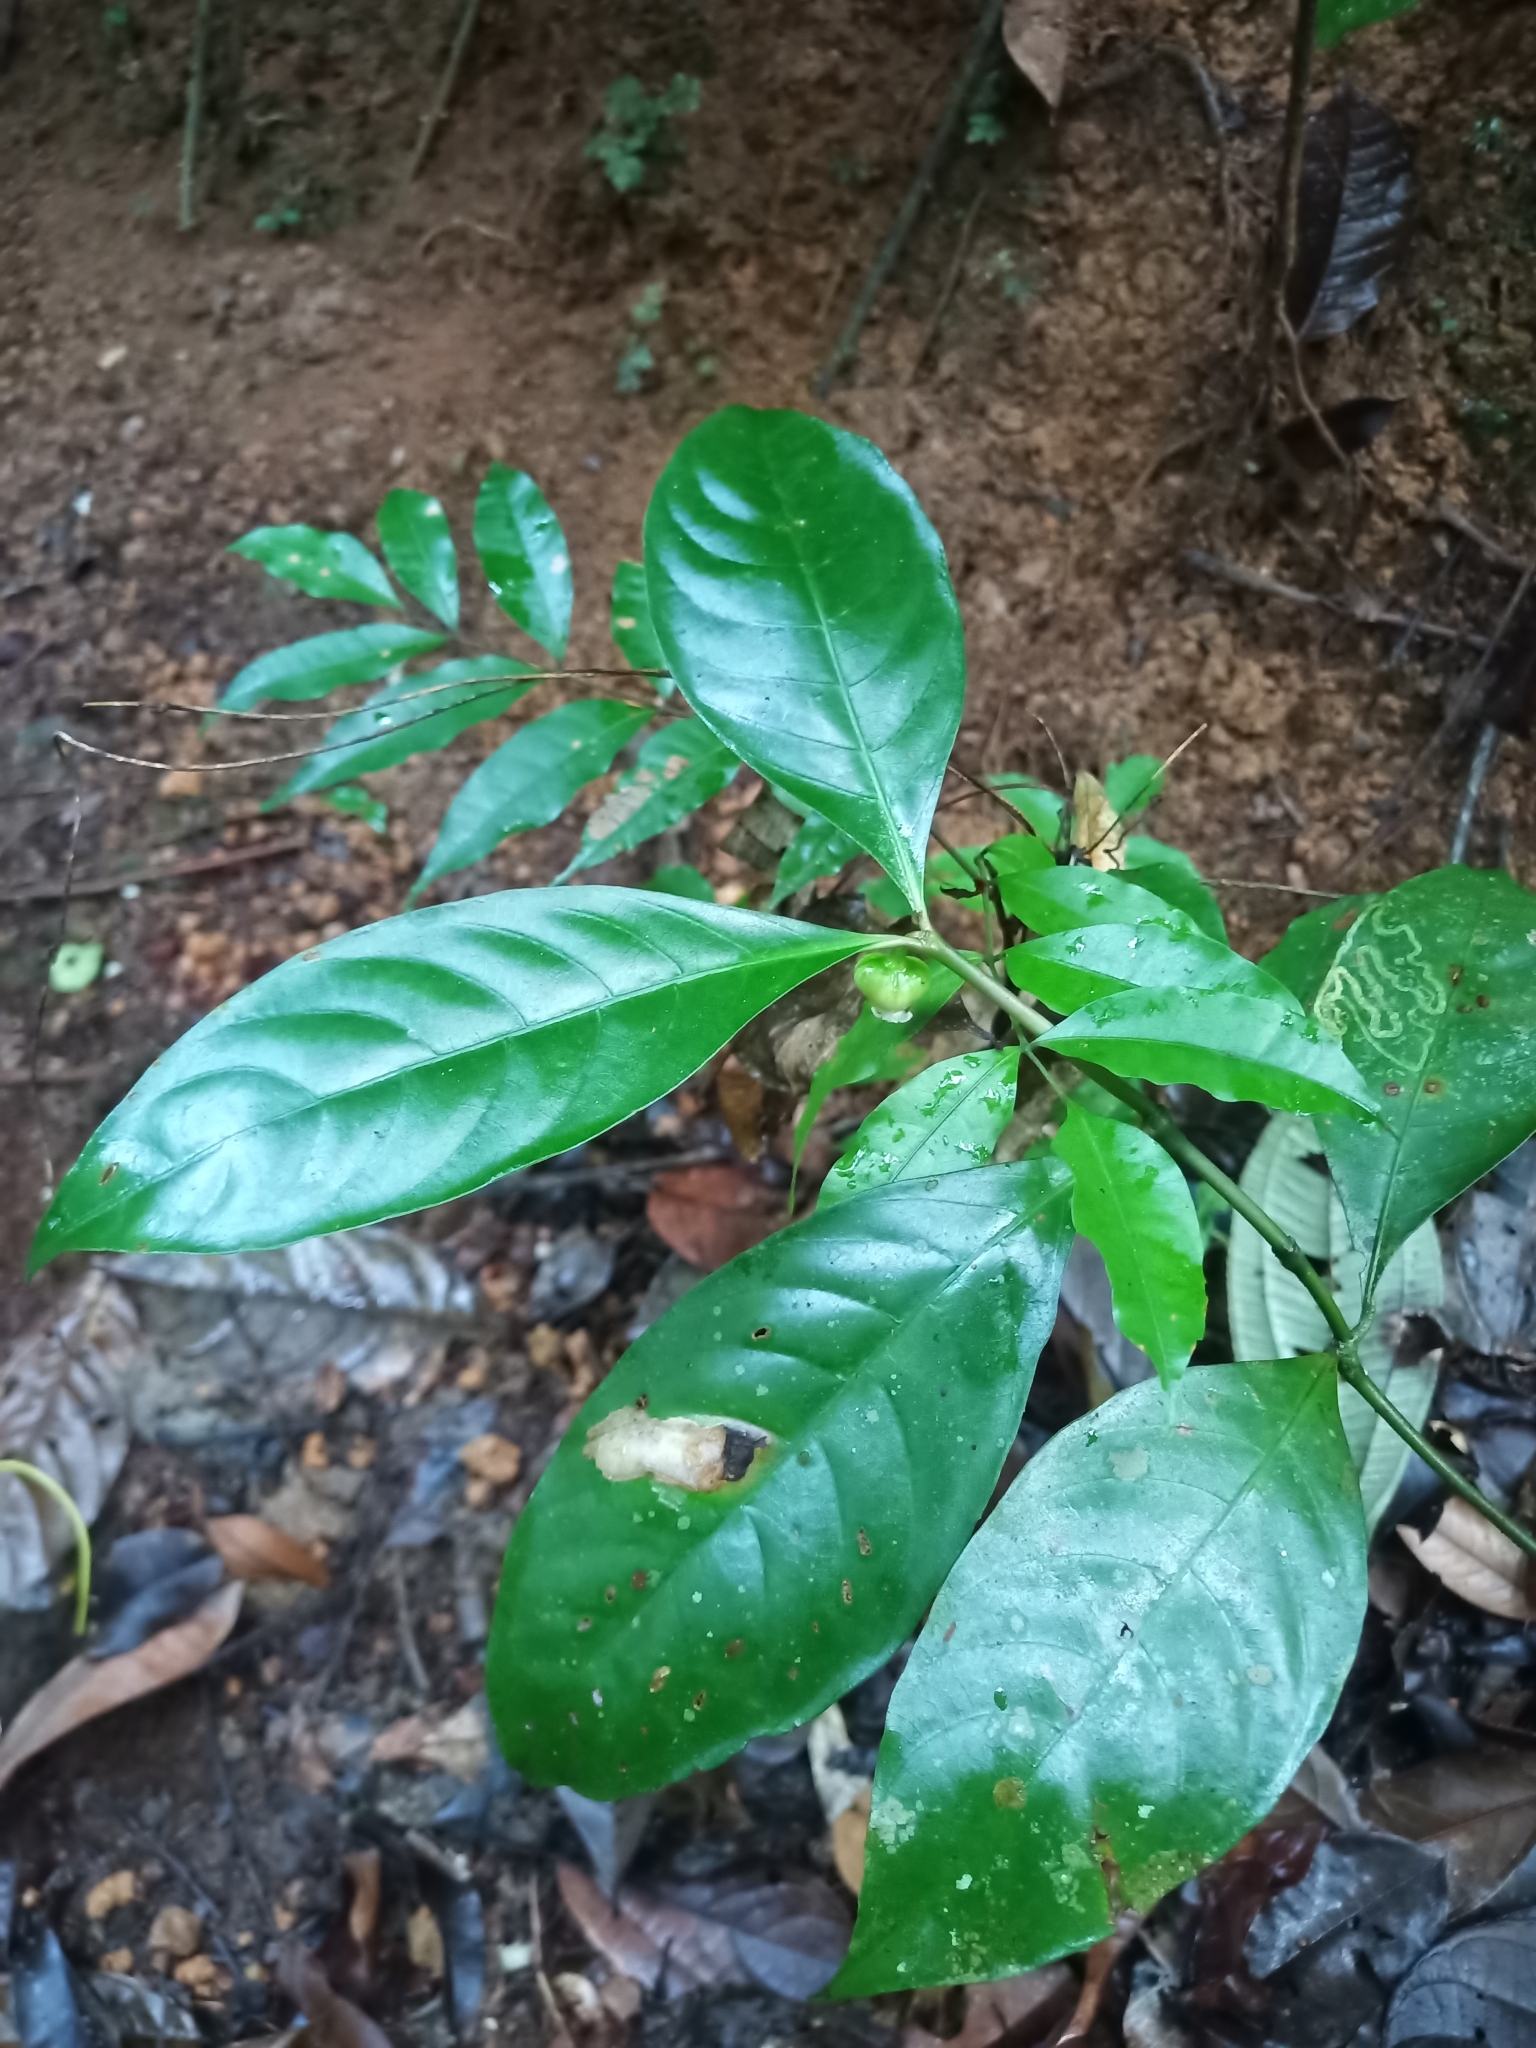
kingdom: Plantae
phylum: Tracheophyta
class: Magnoliopsida
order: Gentianales
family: Rubiaceae
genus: Palicourea
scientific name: Palicourea dichotoma
